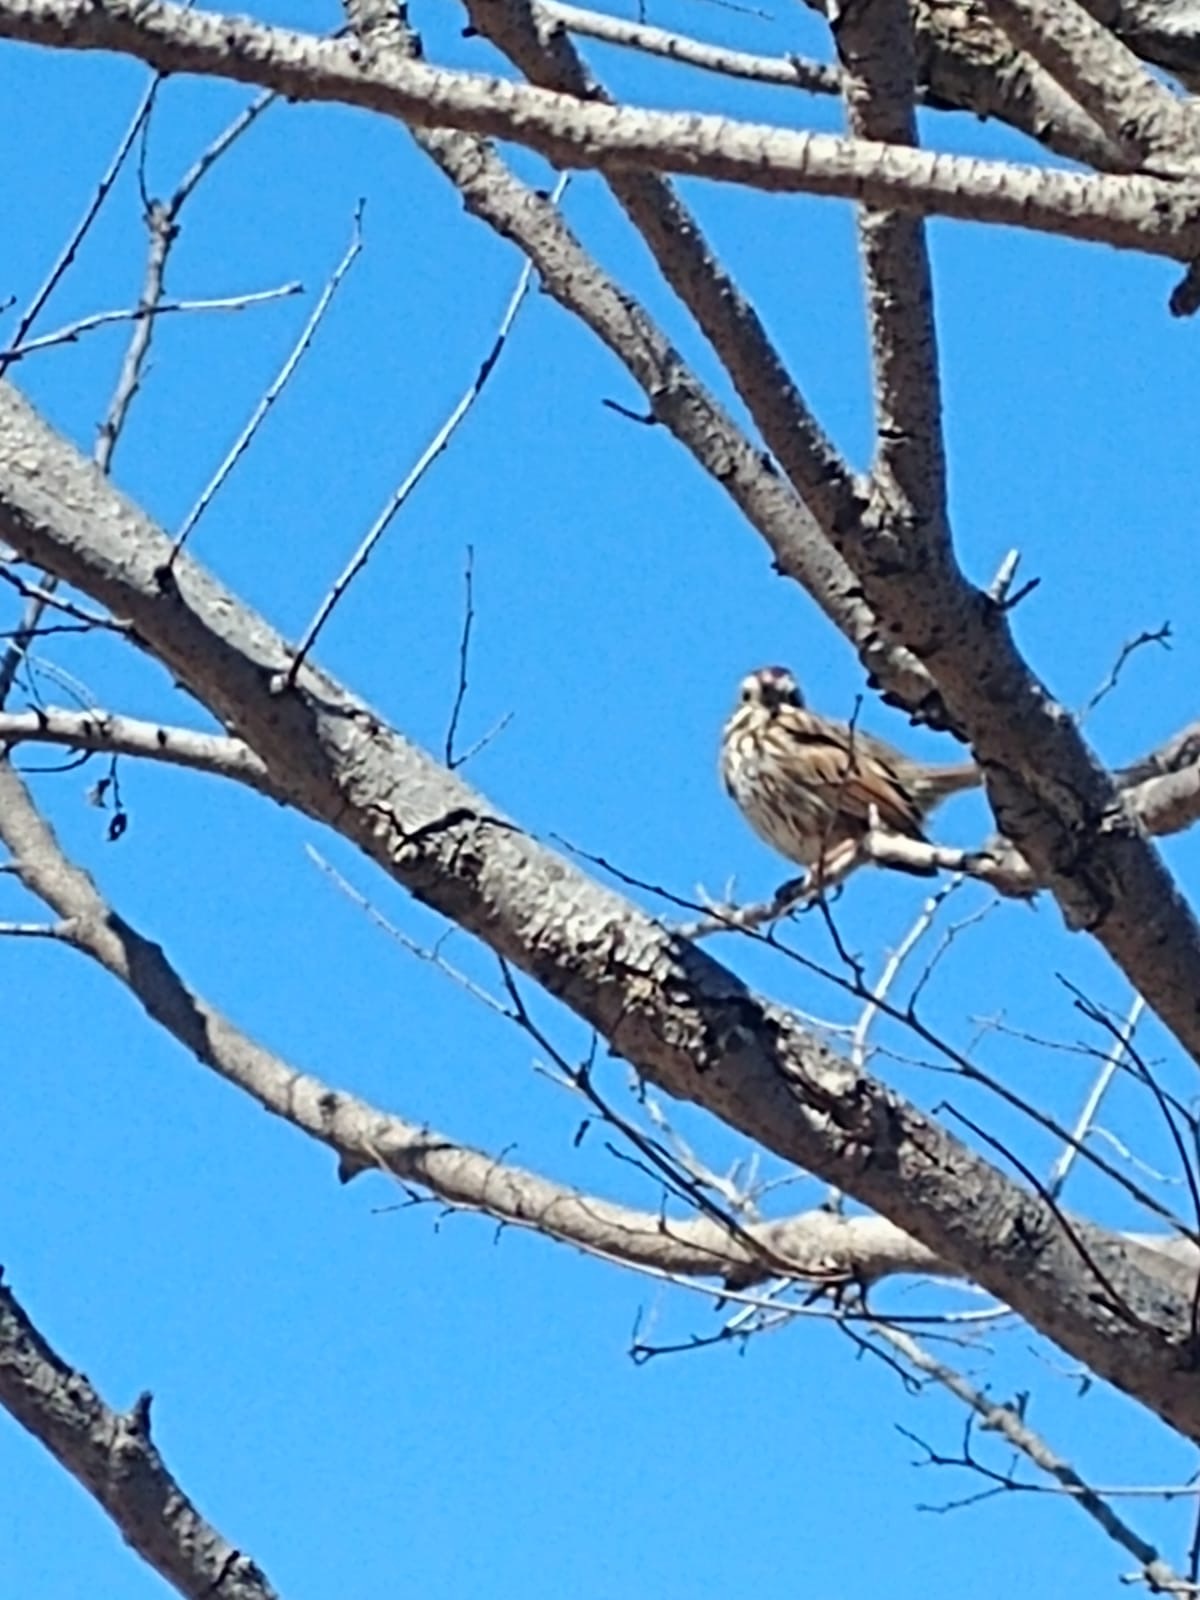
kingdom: Animalia
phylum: Chordata
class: Aves
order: Passeriformes
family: Passerellidae
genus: Melospiza
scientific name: Melospiza melodia
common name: Song sparrow
